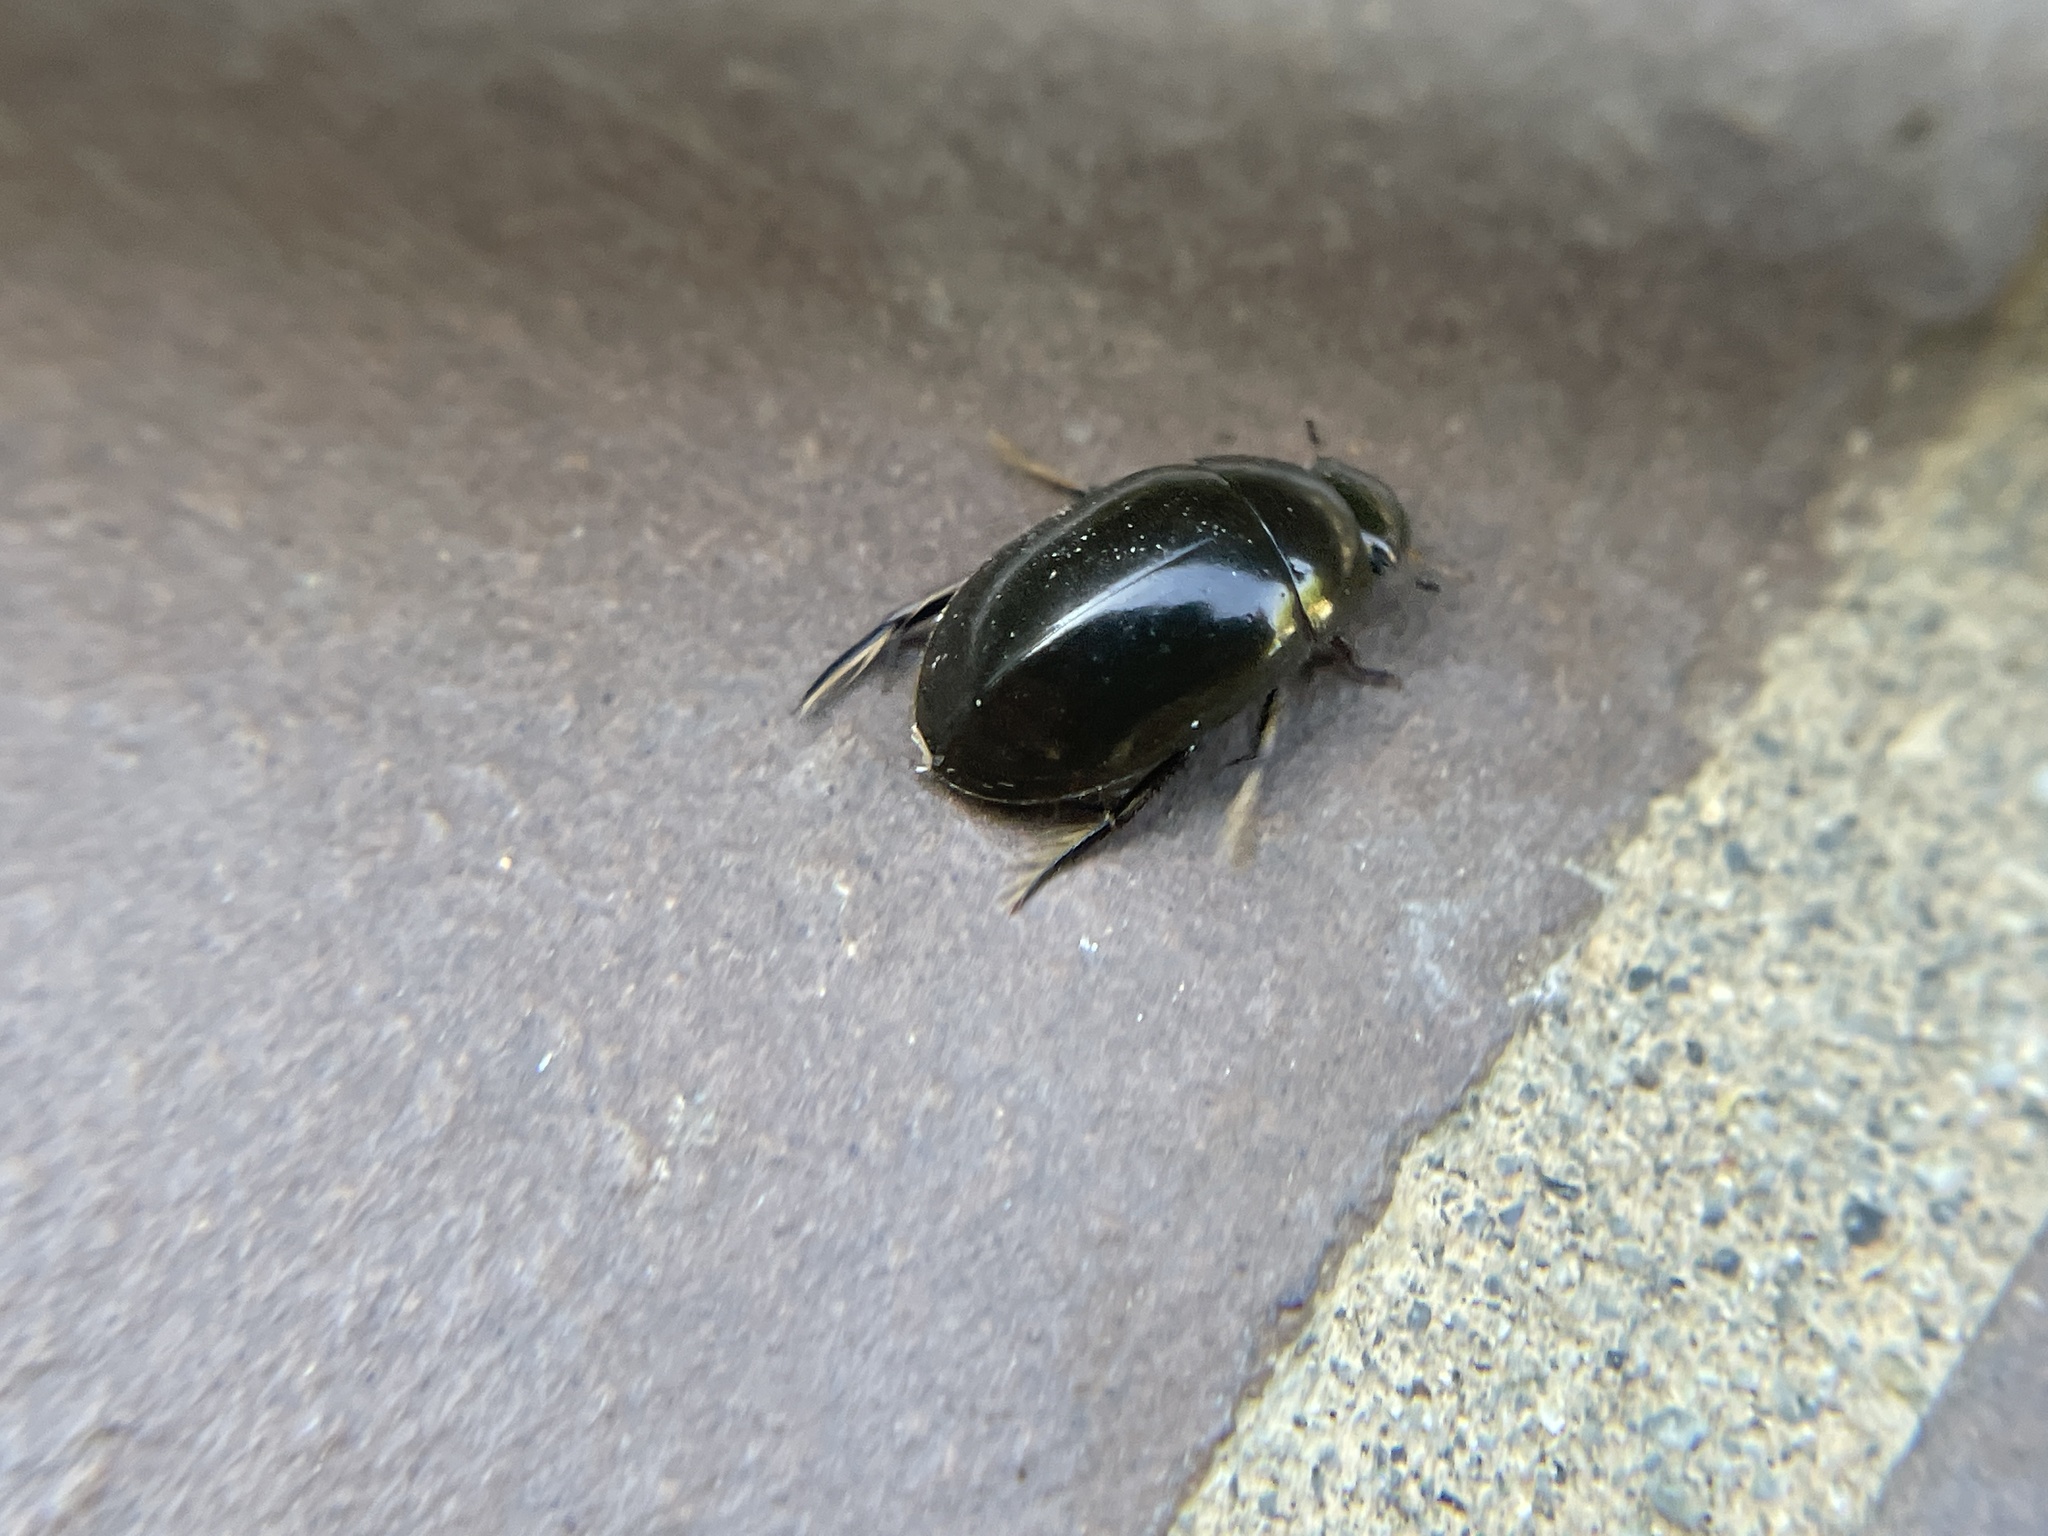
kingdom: Animalia
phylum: Arthropoda
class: Insecta
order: Coleoptera
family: Hydrophilidae
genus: Tropisternus
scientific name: Tropisternus
